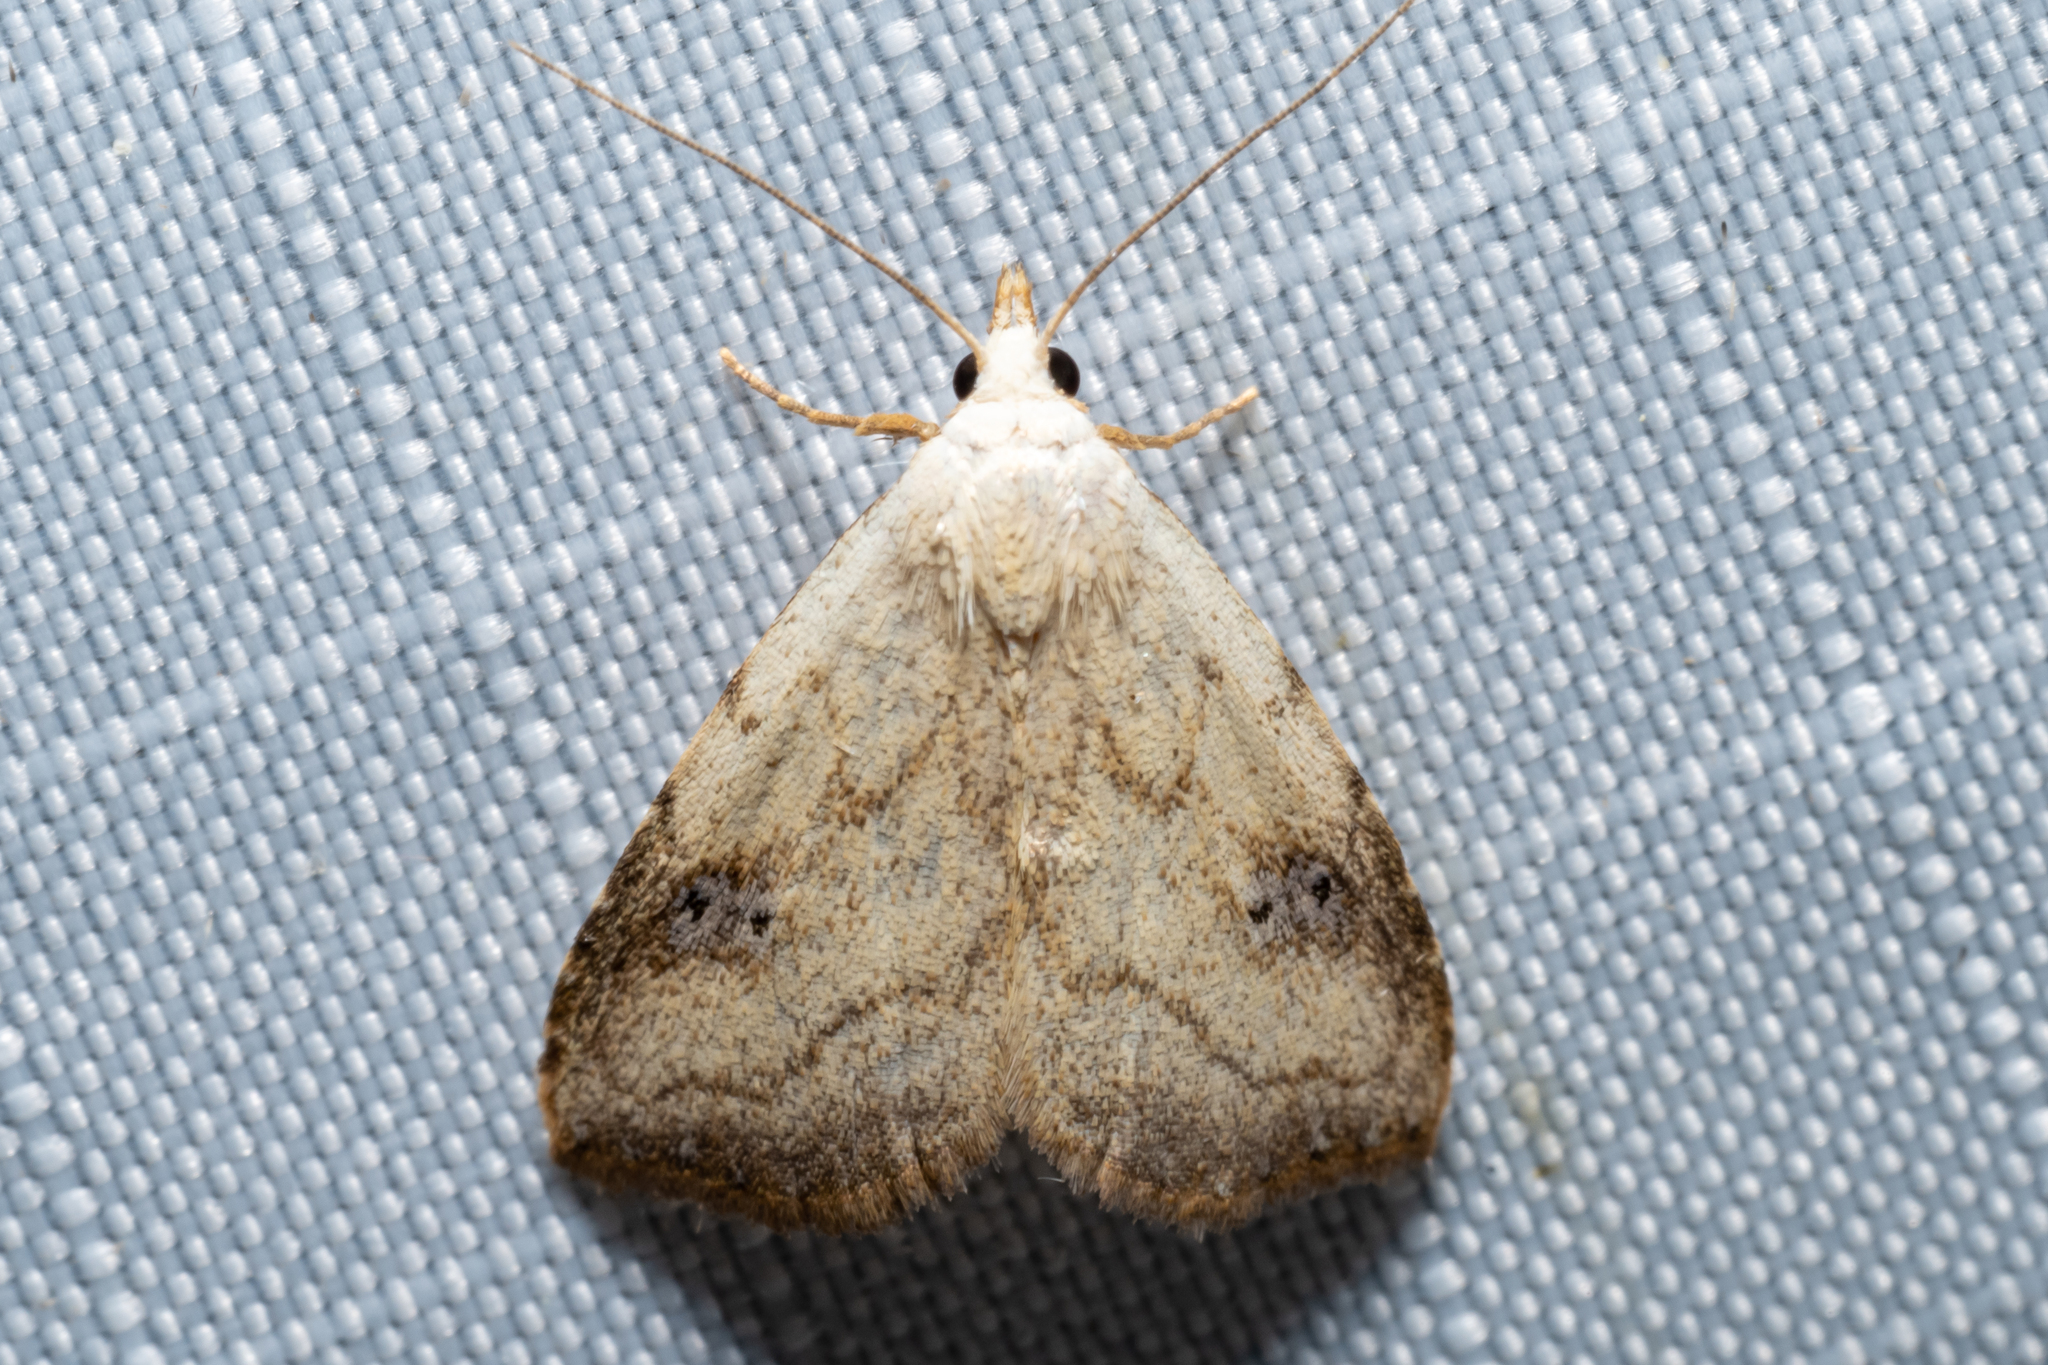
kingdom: Animalia
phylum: Arthropoda
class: Insecta
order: Lepidoptera
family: Erebidae
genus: Rivula
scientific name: Rivula propinqualis
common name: Spotted grass moth
